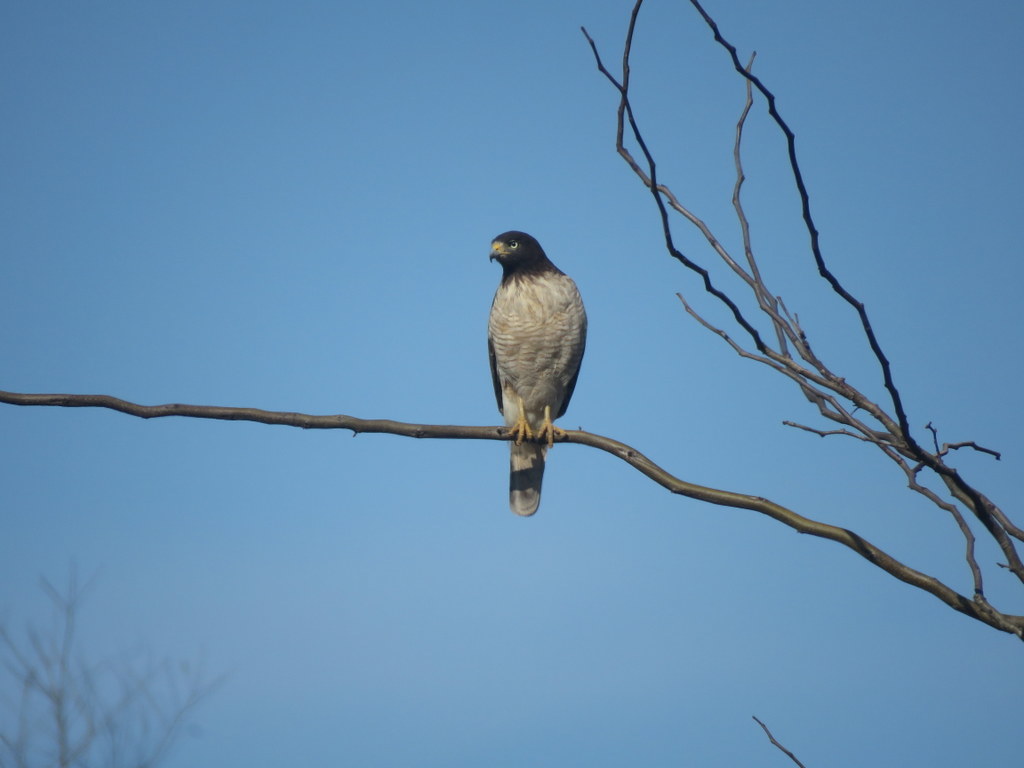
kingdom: Animalia
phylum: Chordata
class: Aves
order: Accipitriformes
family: Accipitridae
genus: Rupornis
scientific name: Rupornis magnirostris
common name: Roadside hawk
